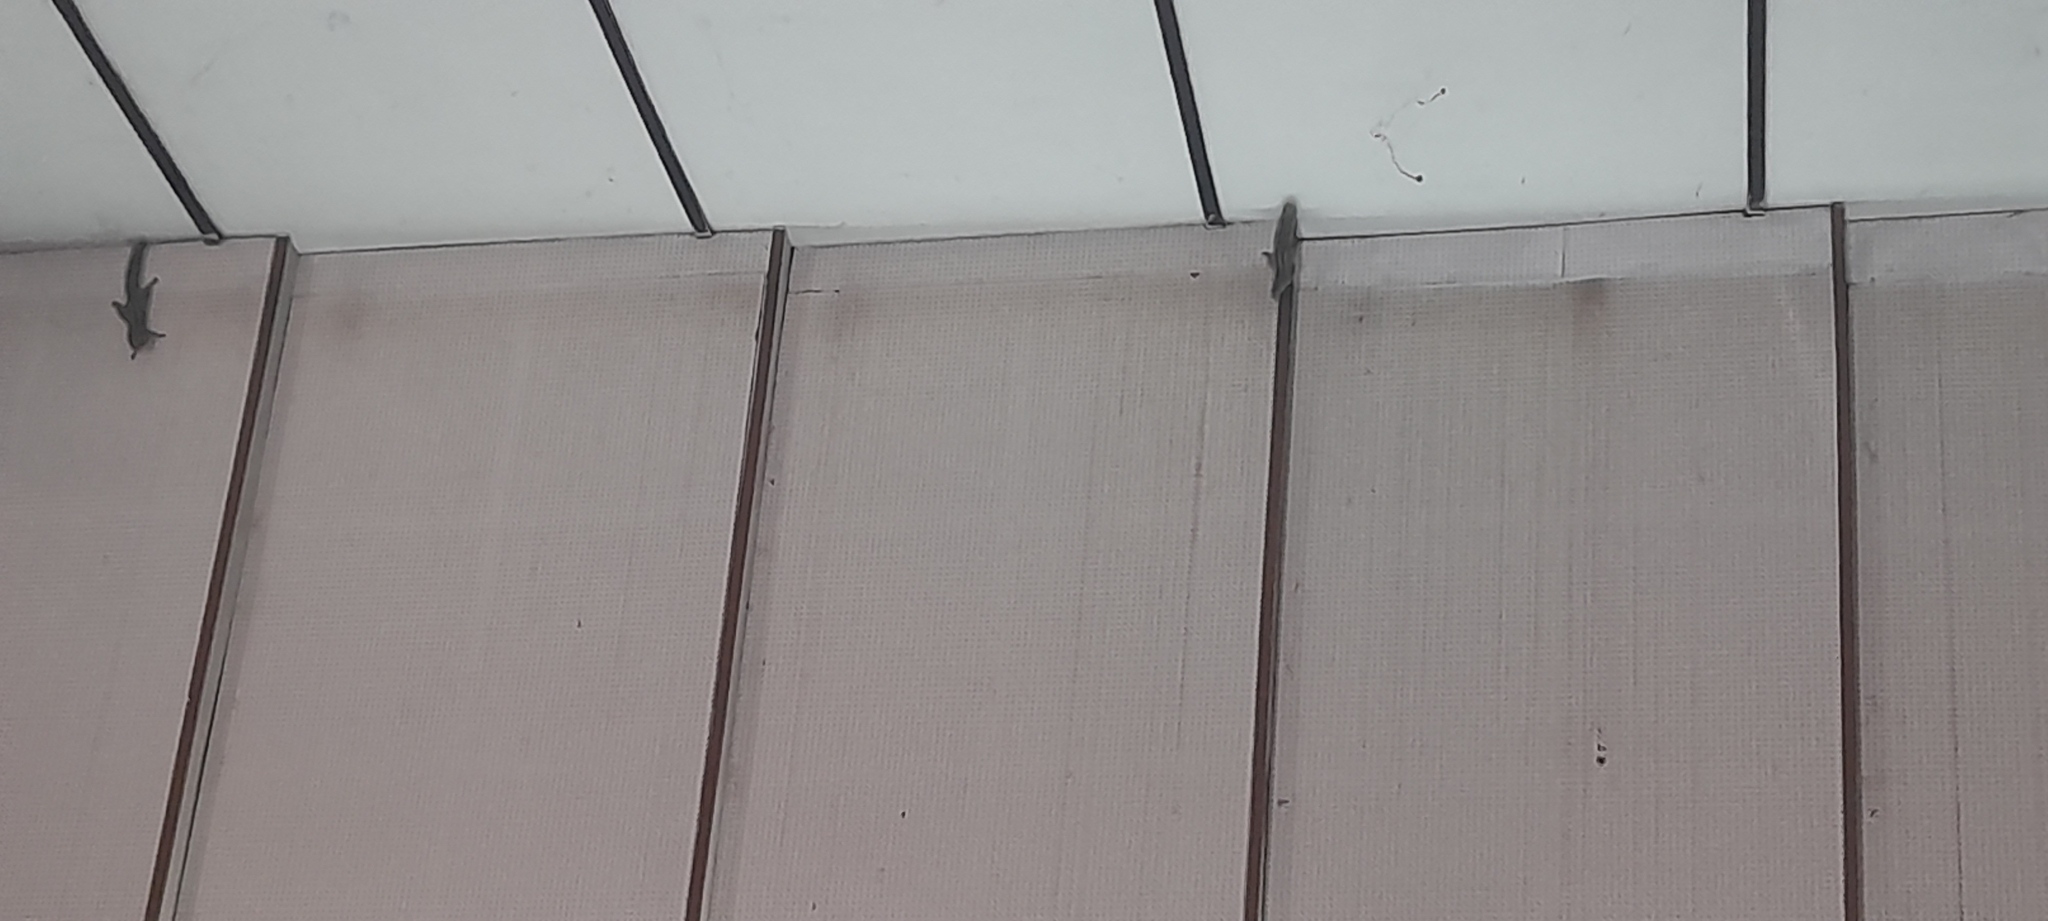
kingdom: Animalia
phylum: Chordata
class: Mammalia
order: Rodentia
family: Sciuridae
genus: Funambulus
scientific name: Funambulus palmarum
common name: Indian palm squirrel
